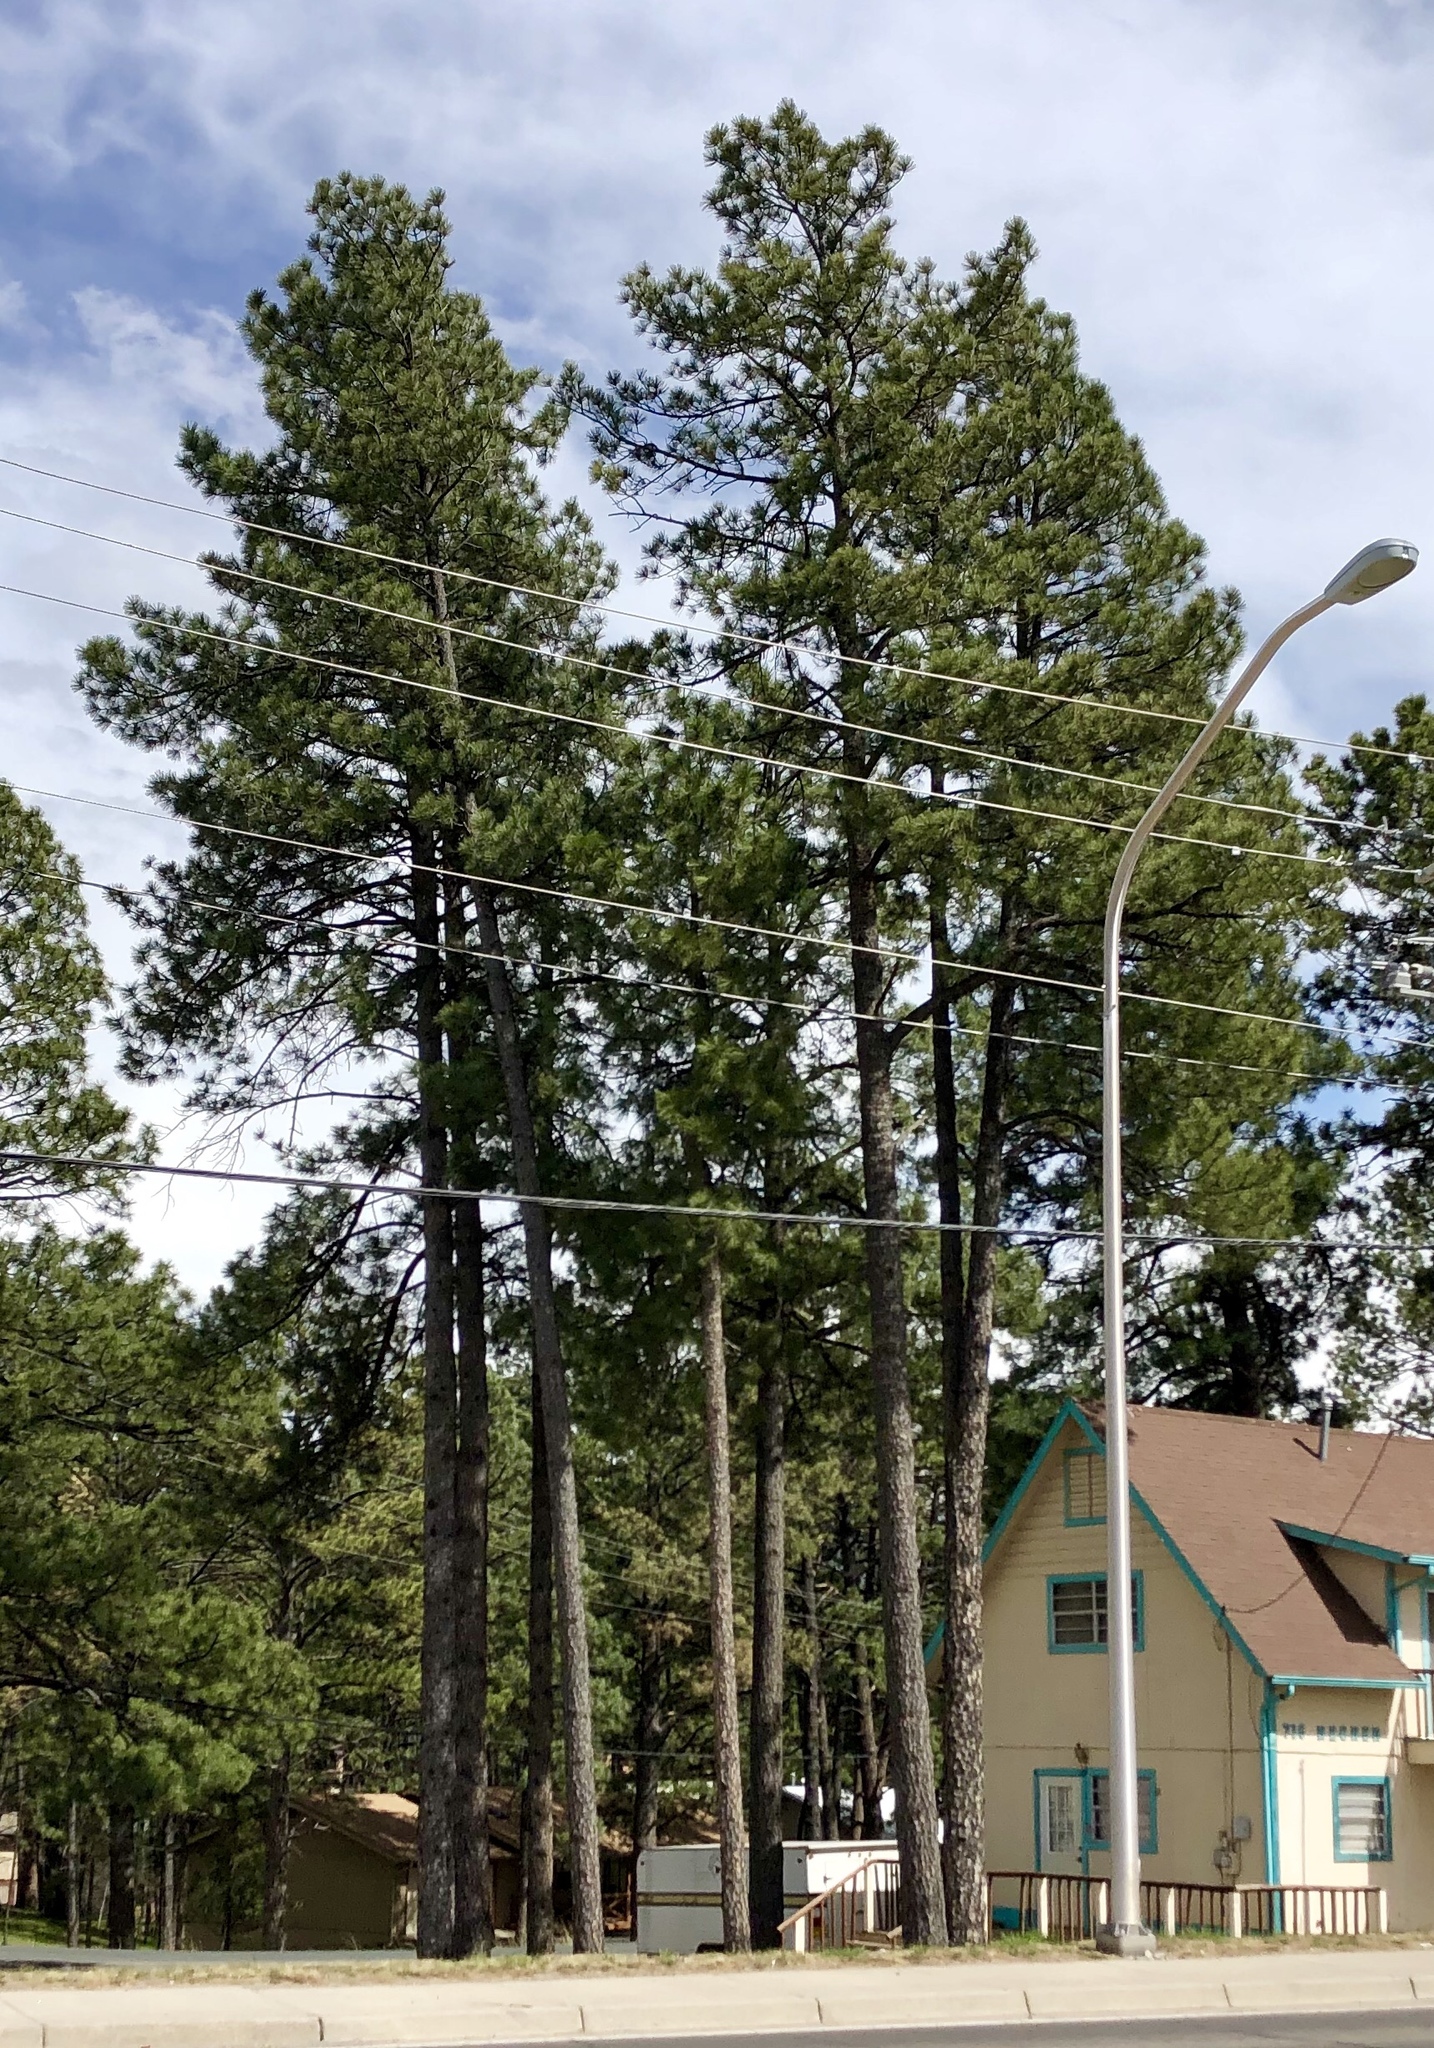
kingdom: Plantae
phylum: Tracheophyta
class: Pinopsida
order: Pinales
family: Pinaceae
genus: Pinus
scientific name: Pinus ponderosa
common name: Western yellow-pine
